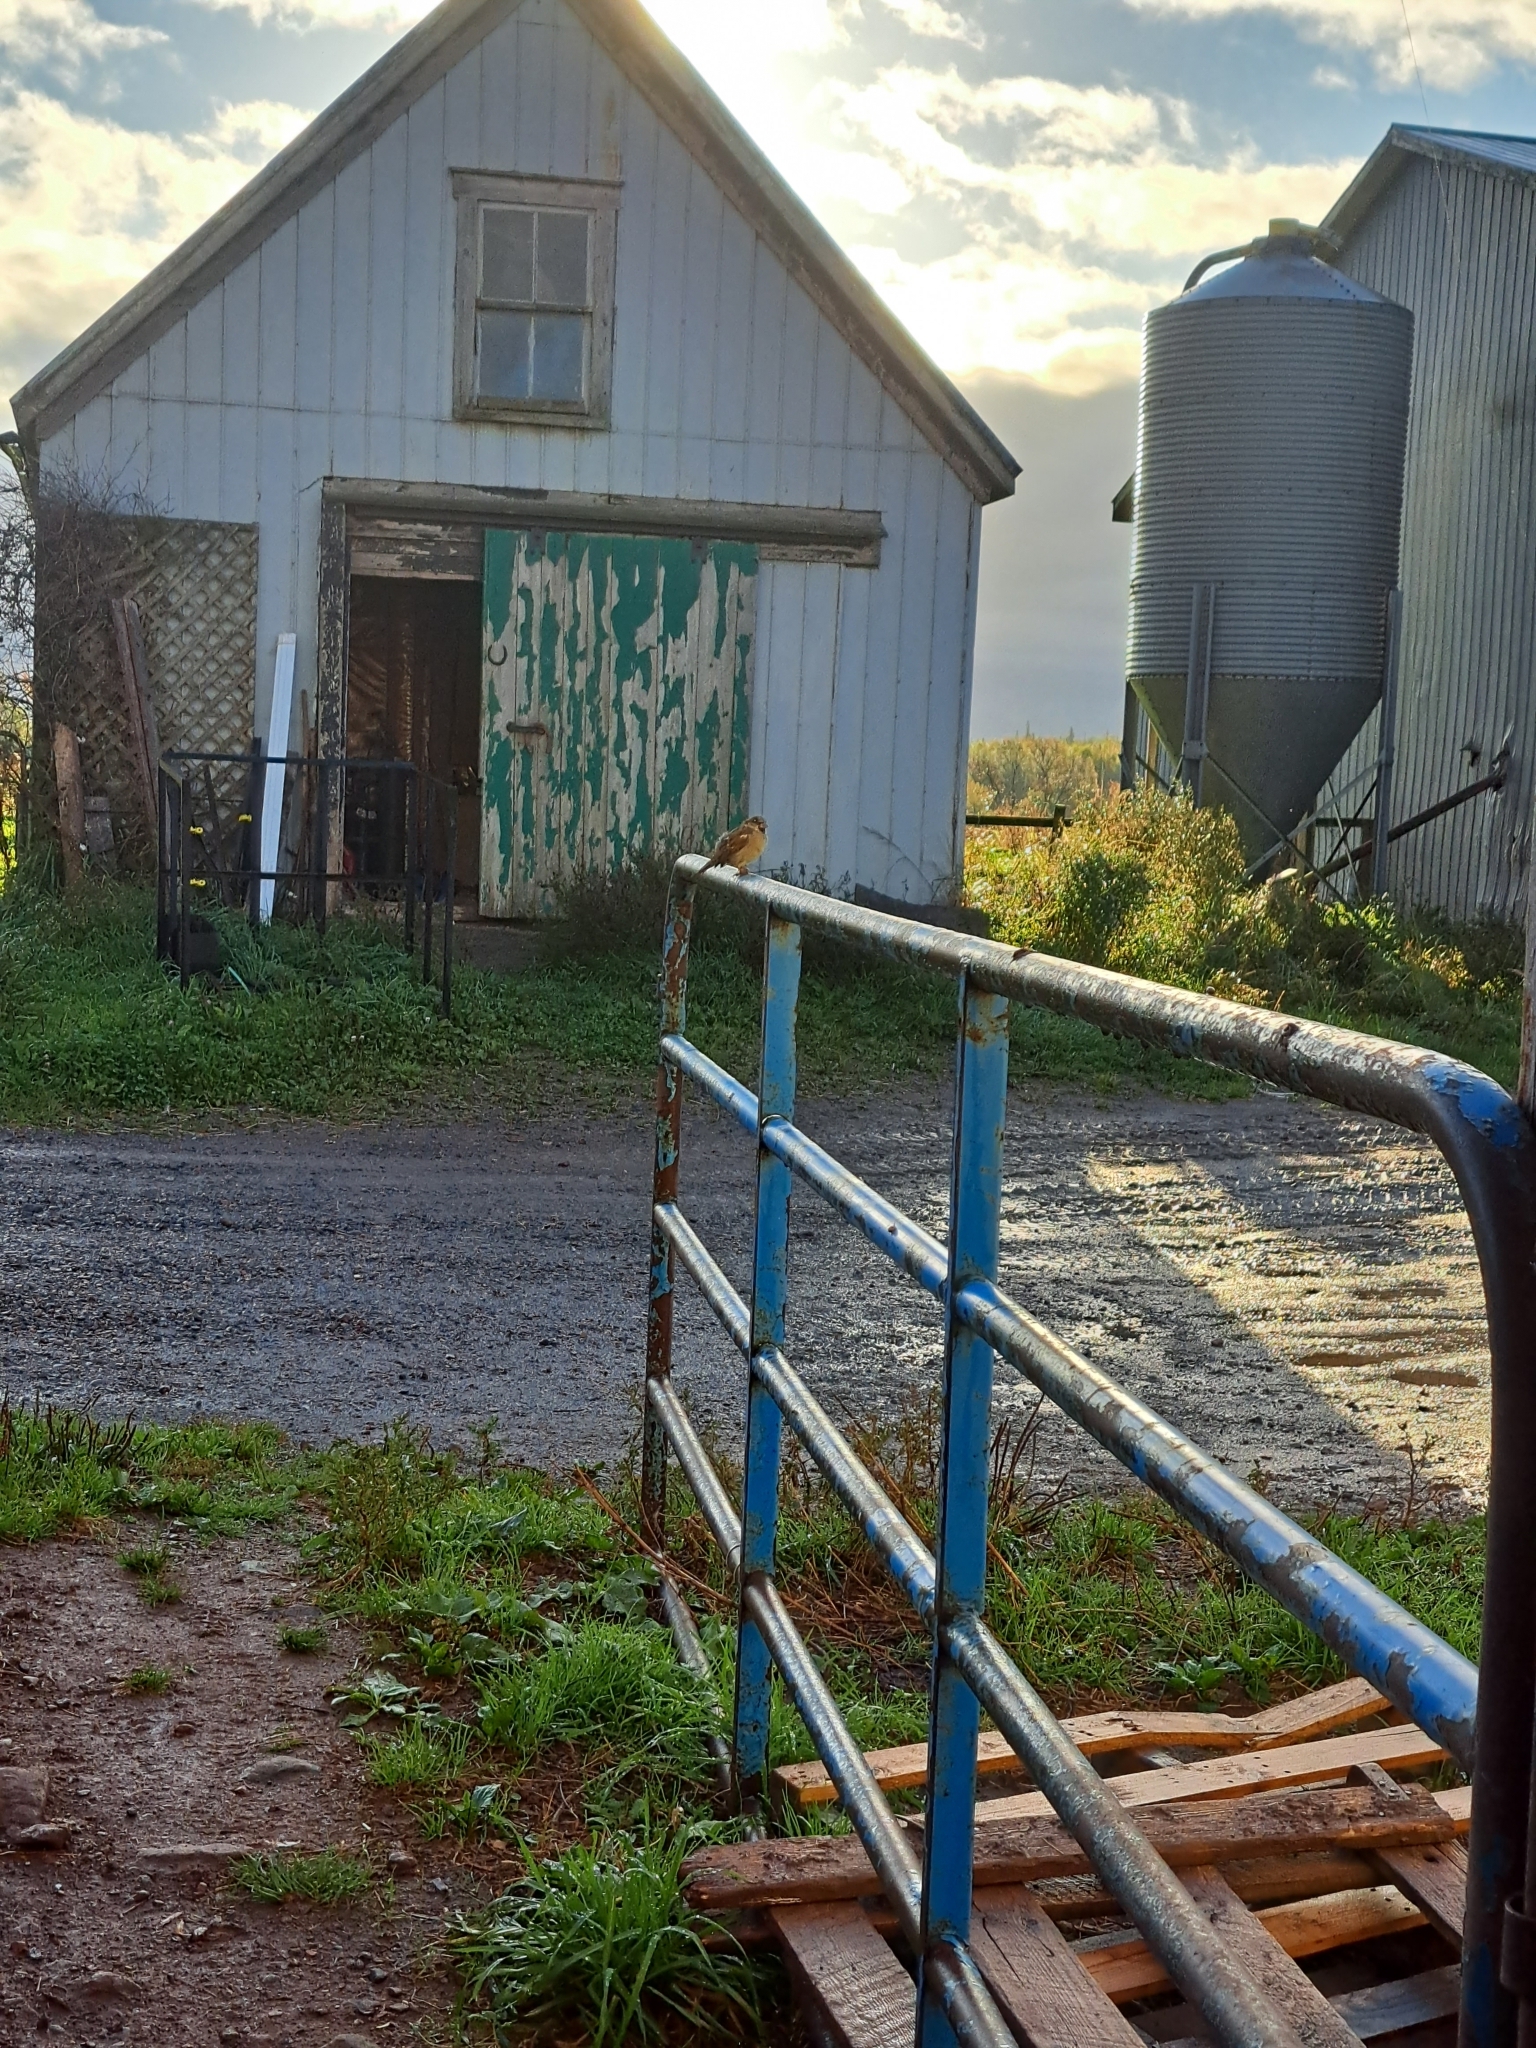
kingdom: Animalia
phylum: Chordata
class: Aves
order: Passeriformes
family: Passeridae
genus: Passer
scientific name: Passer domesticus
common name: House sparrow
